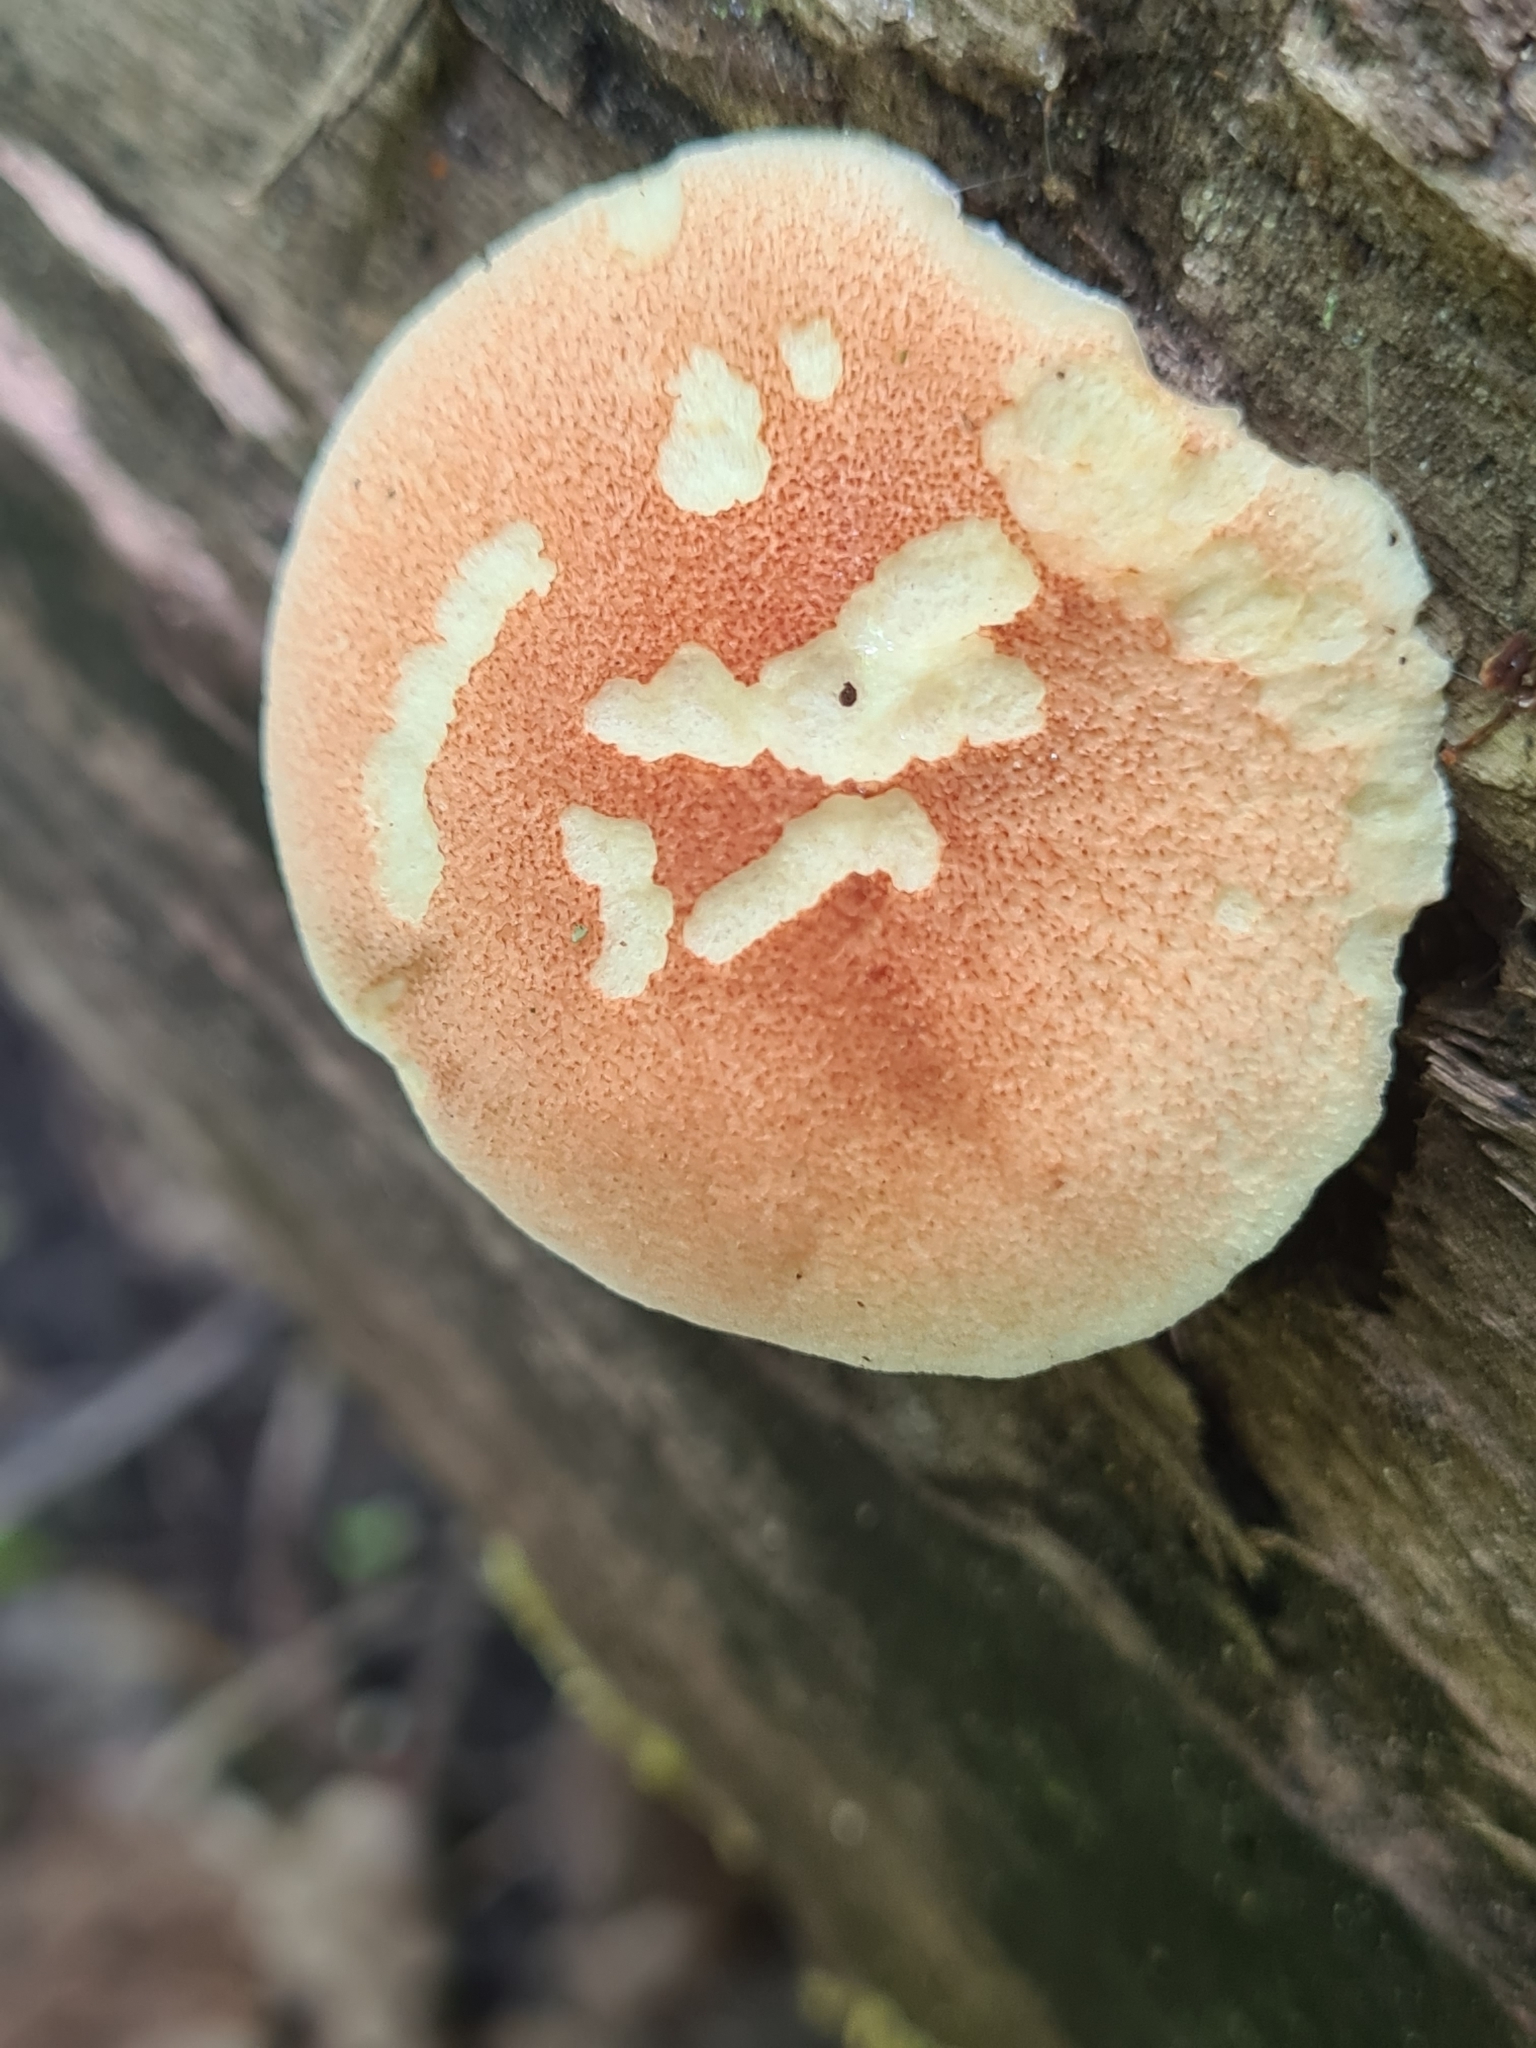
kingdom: Fungi
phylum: Basidiomycota
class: Agaricomycetes
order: Gloeophyllales
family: Gloeophyllaceae
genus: Neolentinus
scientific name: Neolentinus cyathiformis
